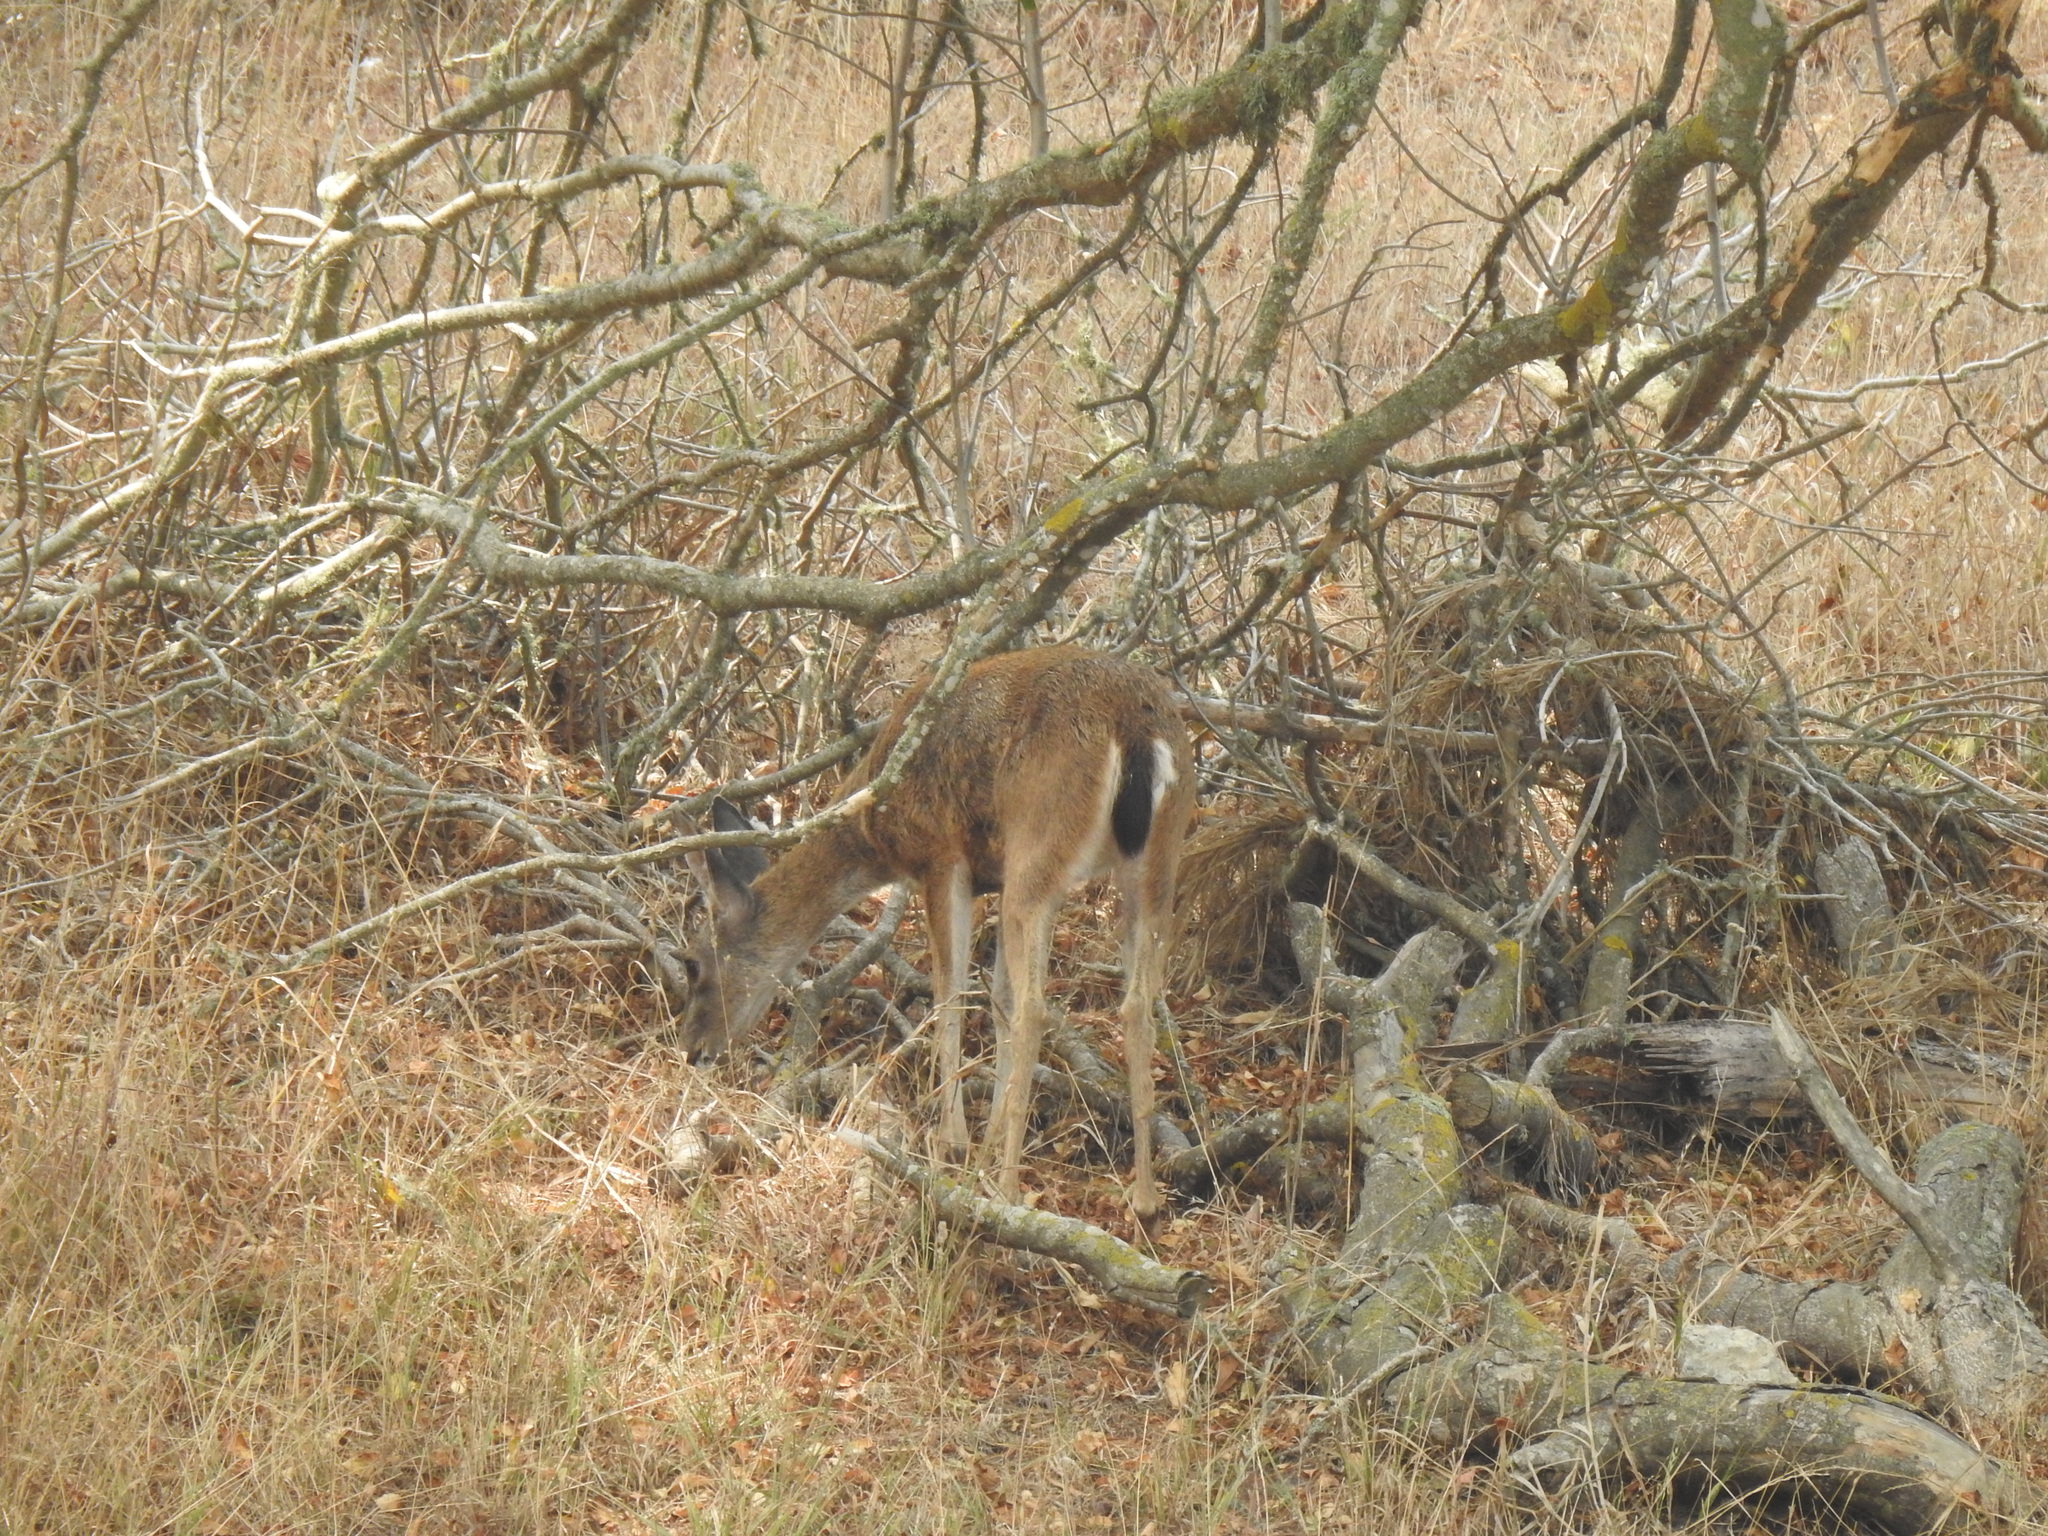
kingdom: Animalia
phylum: Chordata
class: Mammalia
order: Artiodactyla
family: Cervidae
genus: Odocoileus
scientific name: Odocoileus hemionus
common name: Mule deer
